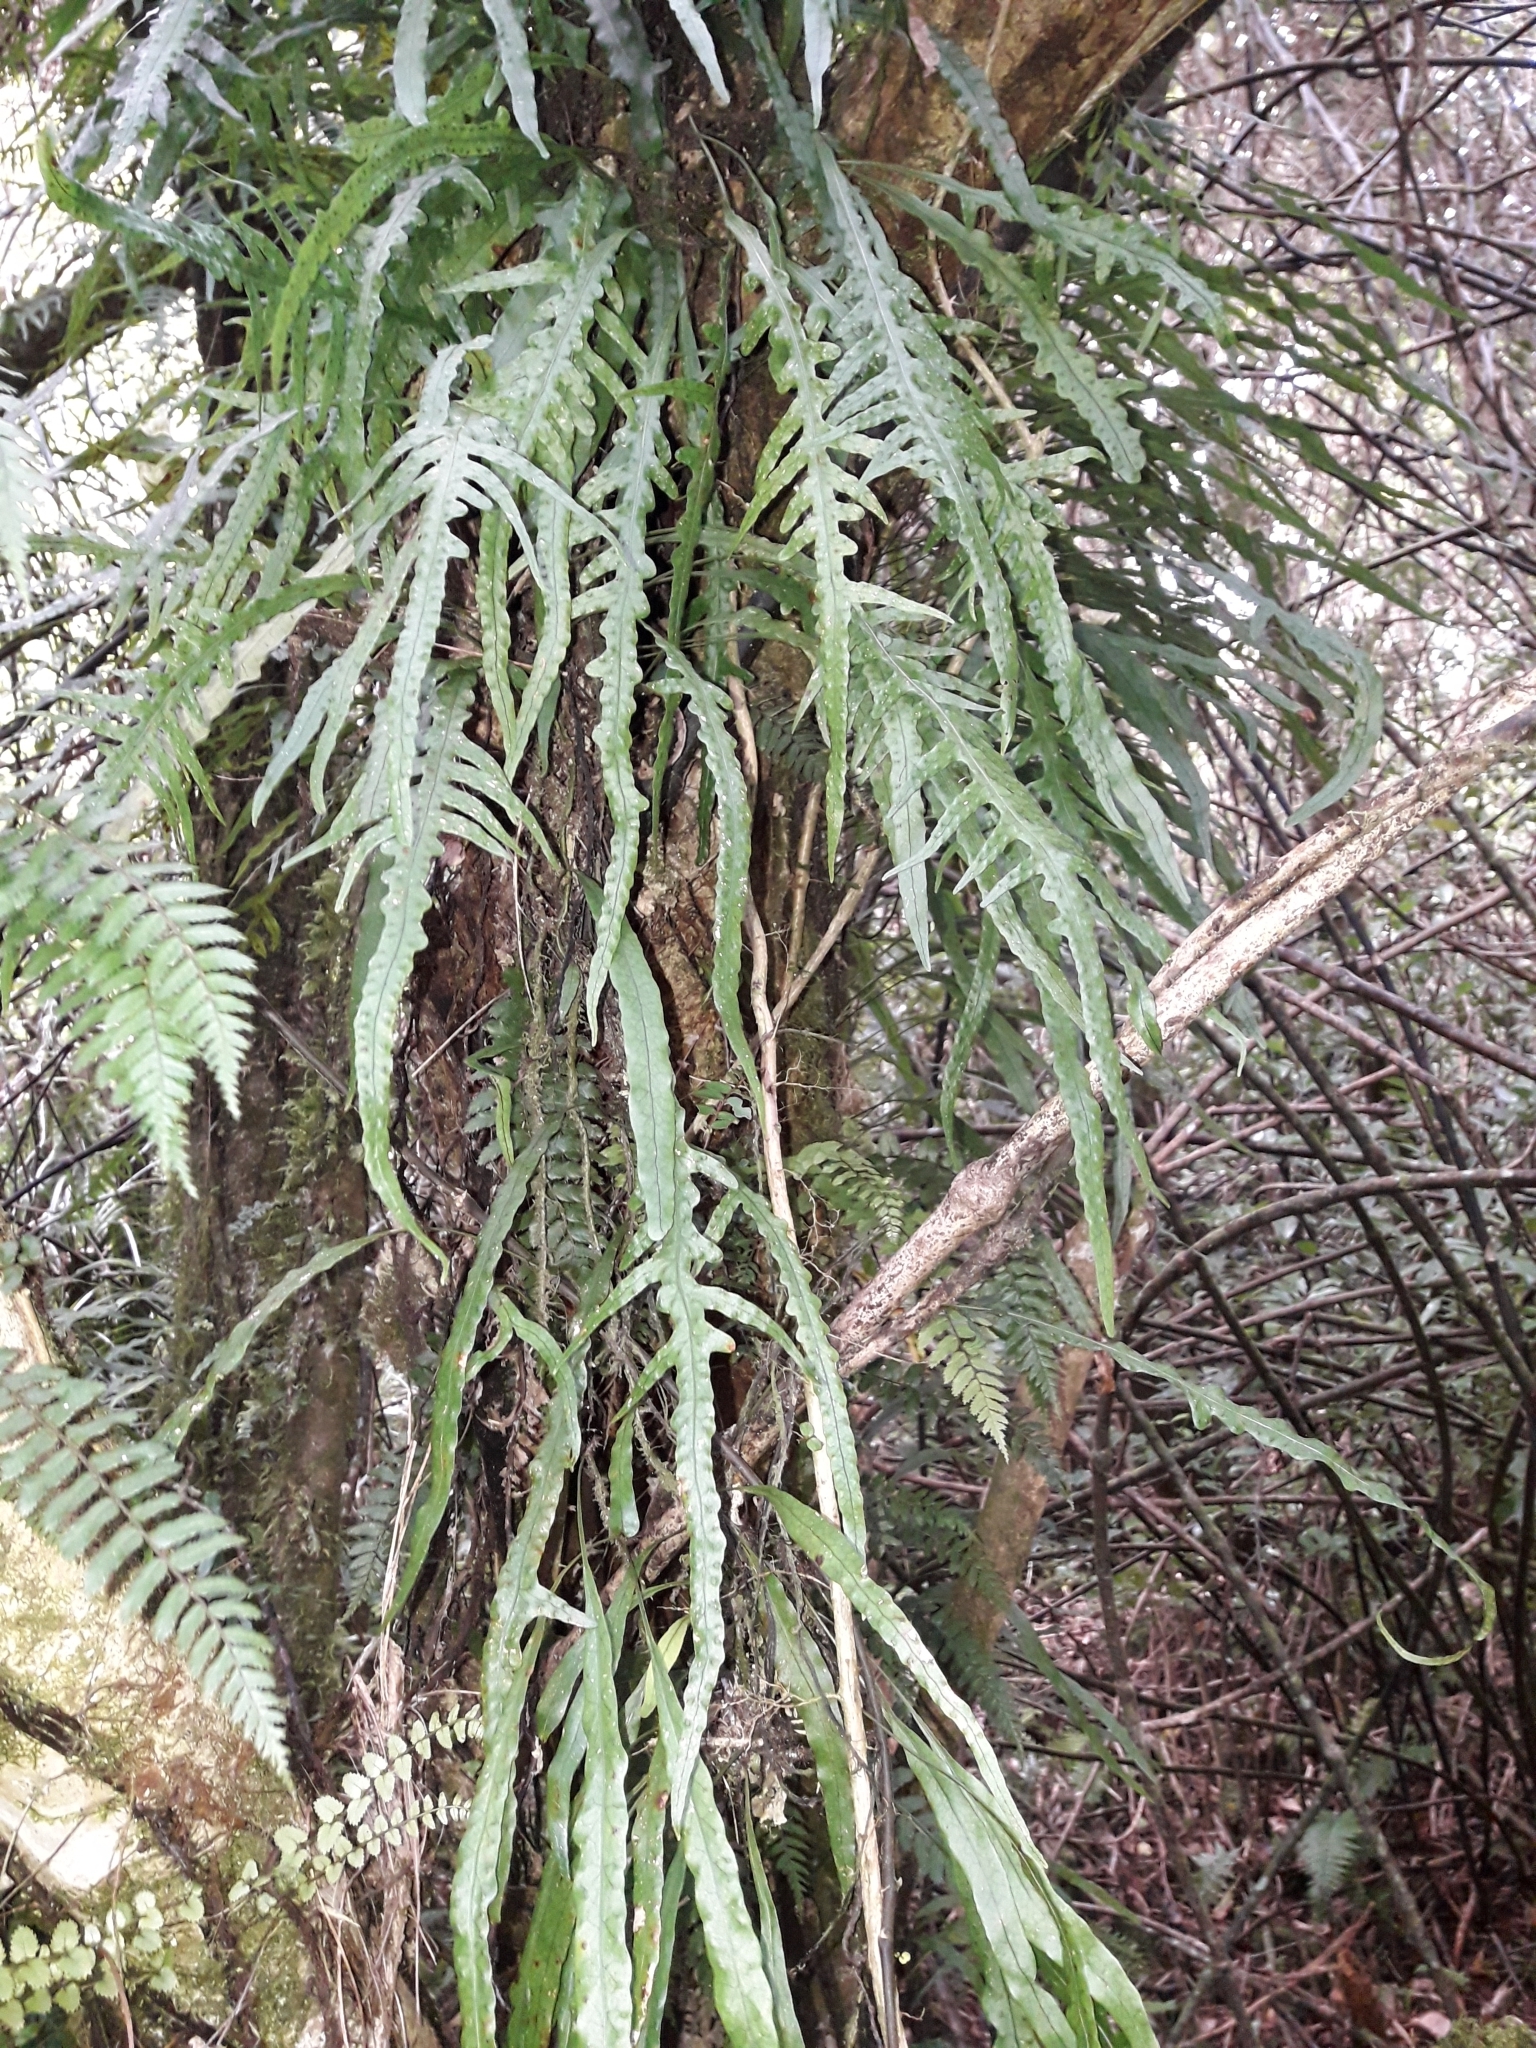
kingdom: Plantae
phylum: Tracheophyta
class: Polypodiopsida
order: Polypodiales
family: Polypodiaceae
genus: Lecanopteris
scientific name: Lecanopteris scandens
